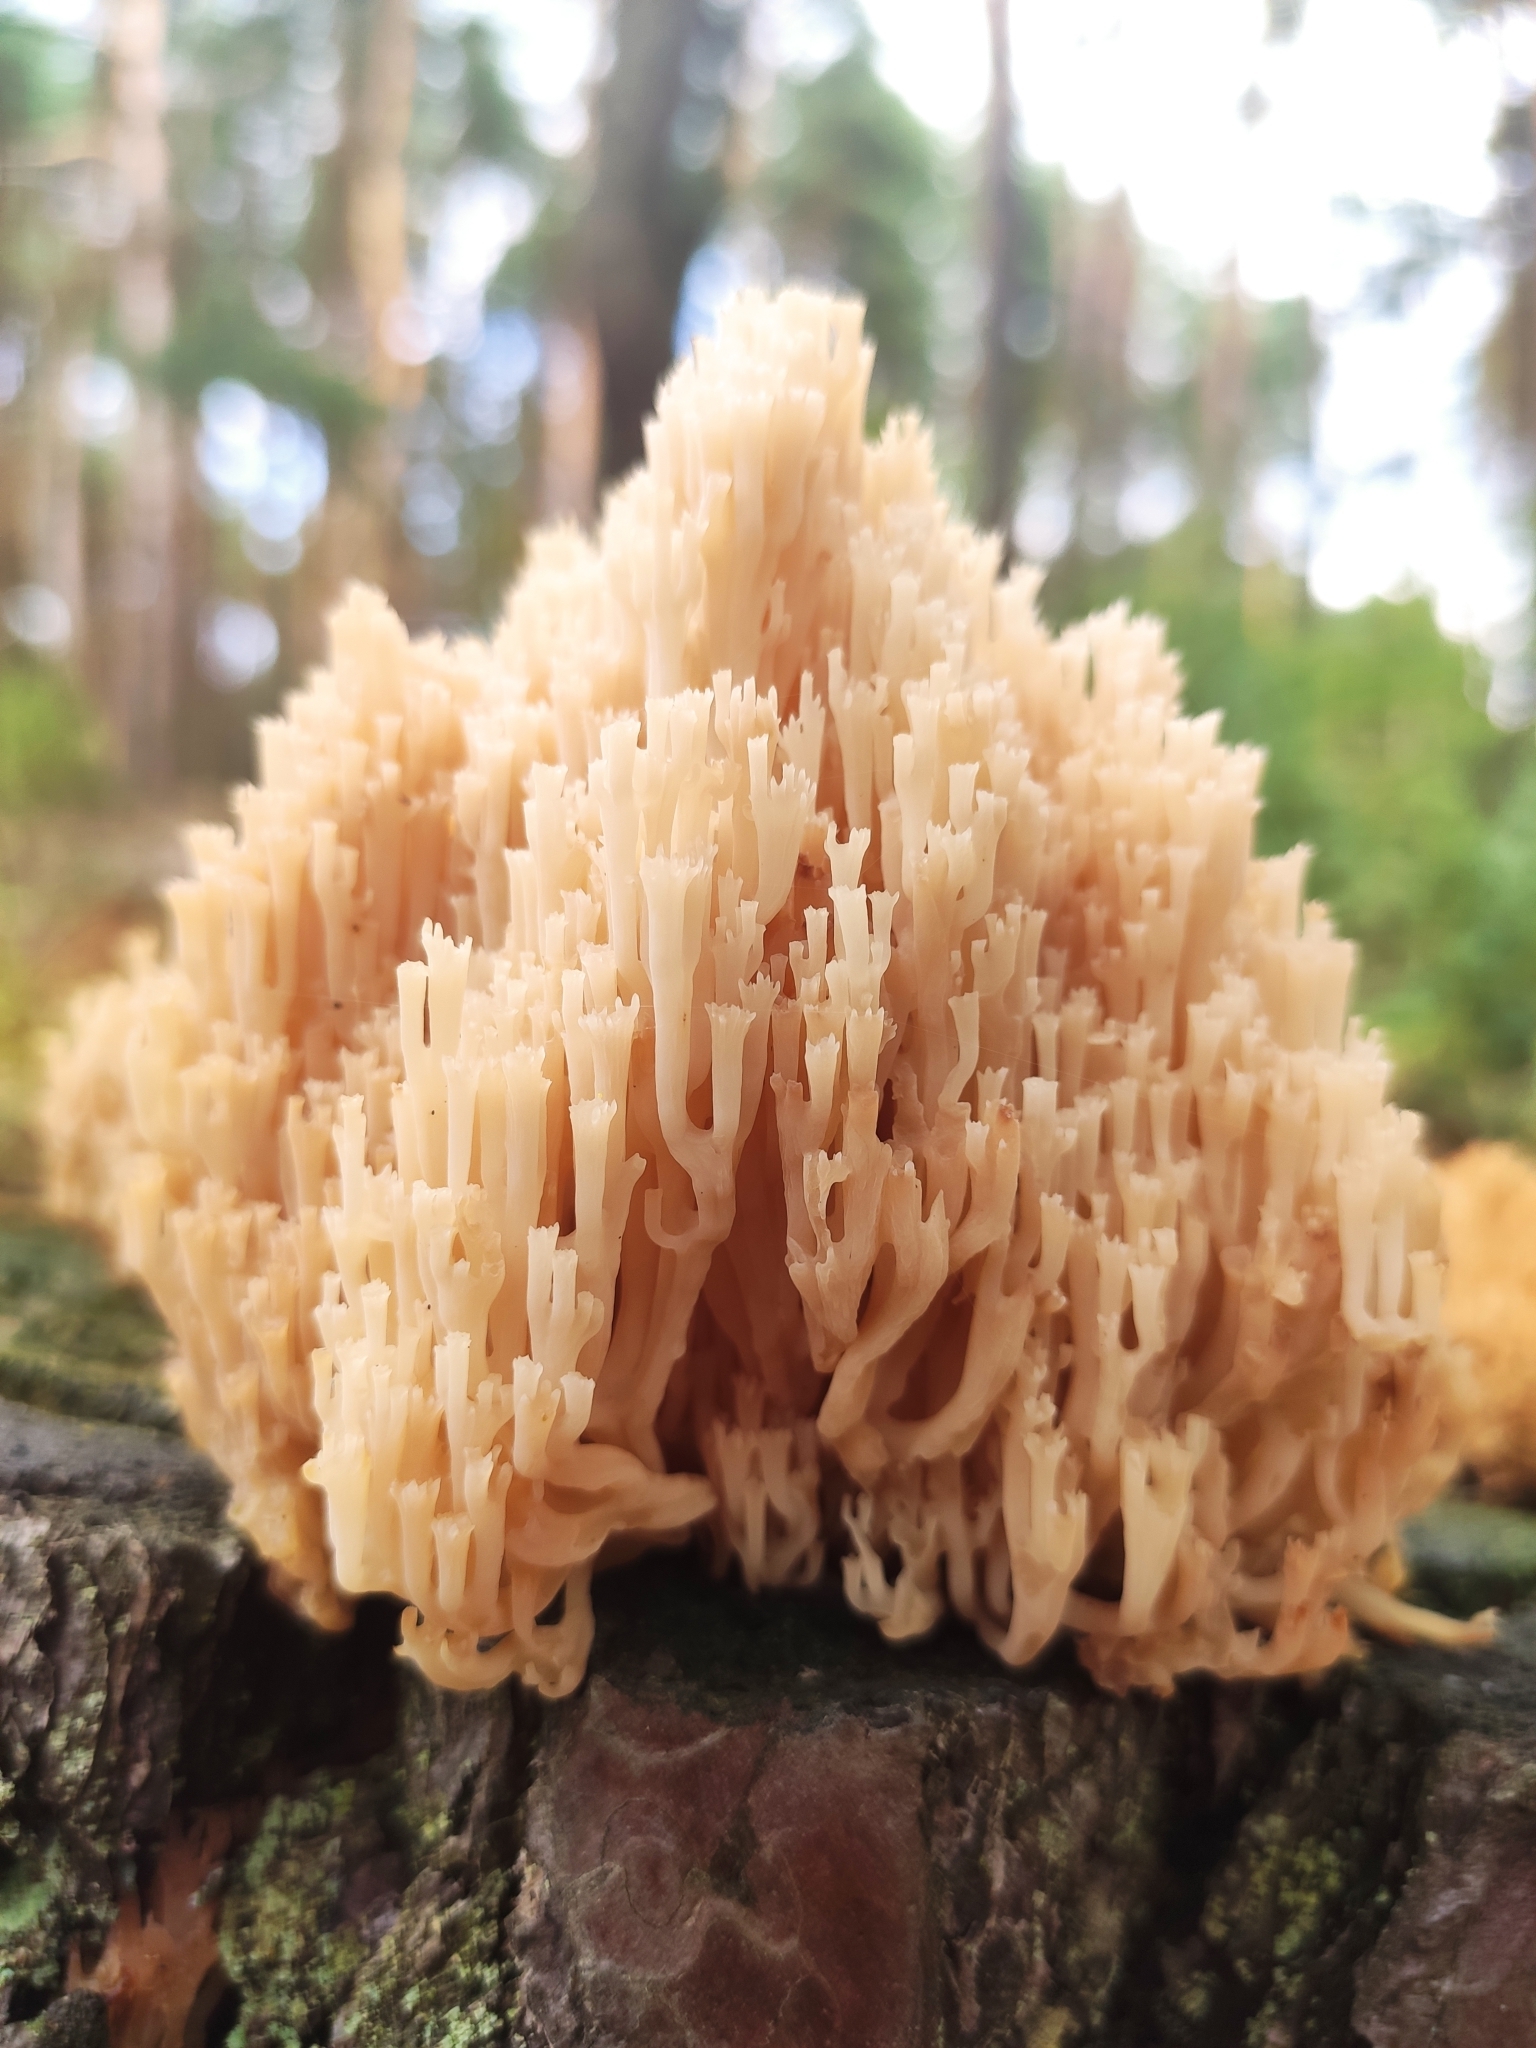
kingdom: Fungi
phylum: Basidiomycota
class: Agaricomycetes
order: Russulales
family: Auriscalpiaceae
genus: Artomyces
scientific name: Artomyces pyxidatus
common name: Crown-tipped coral fungus
